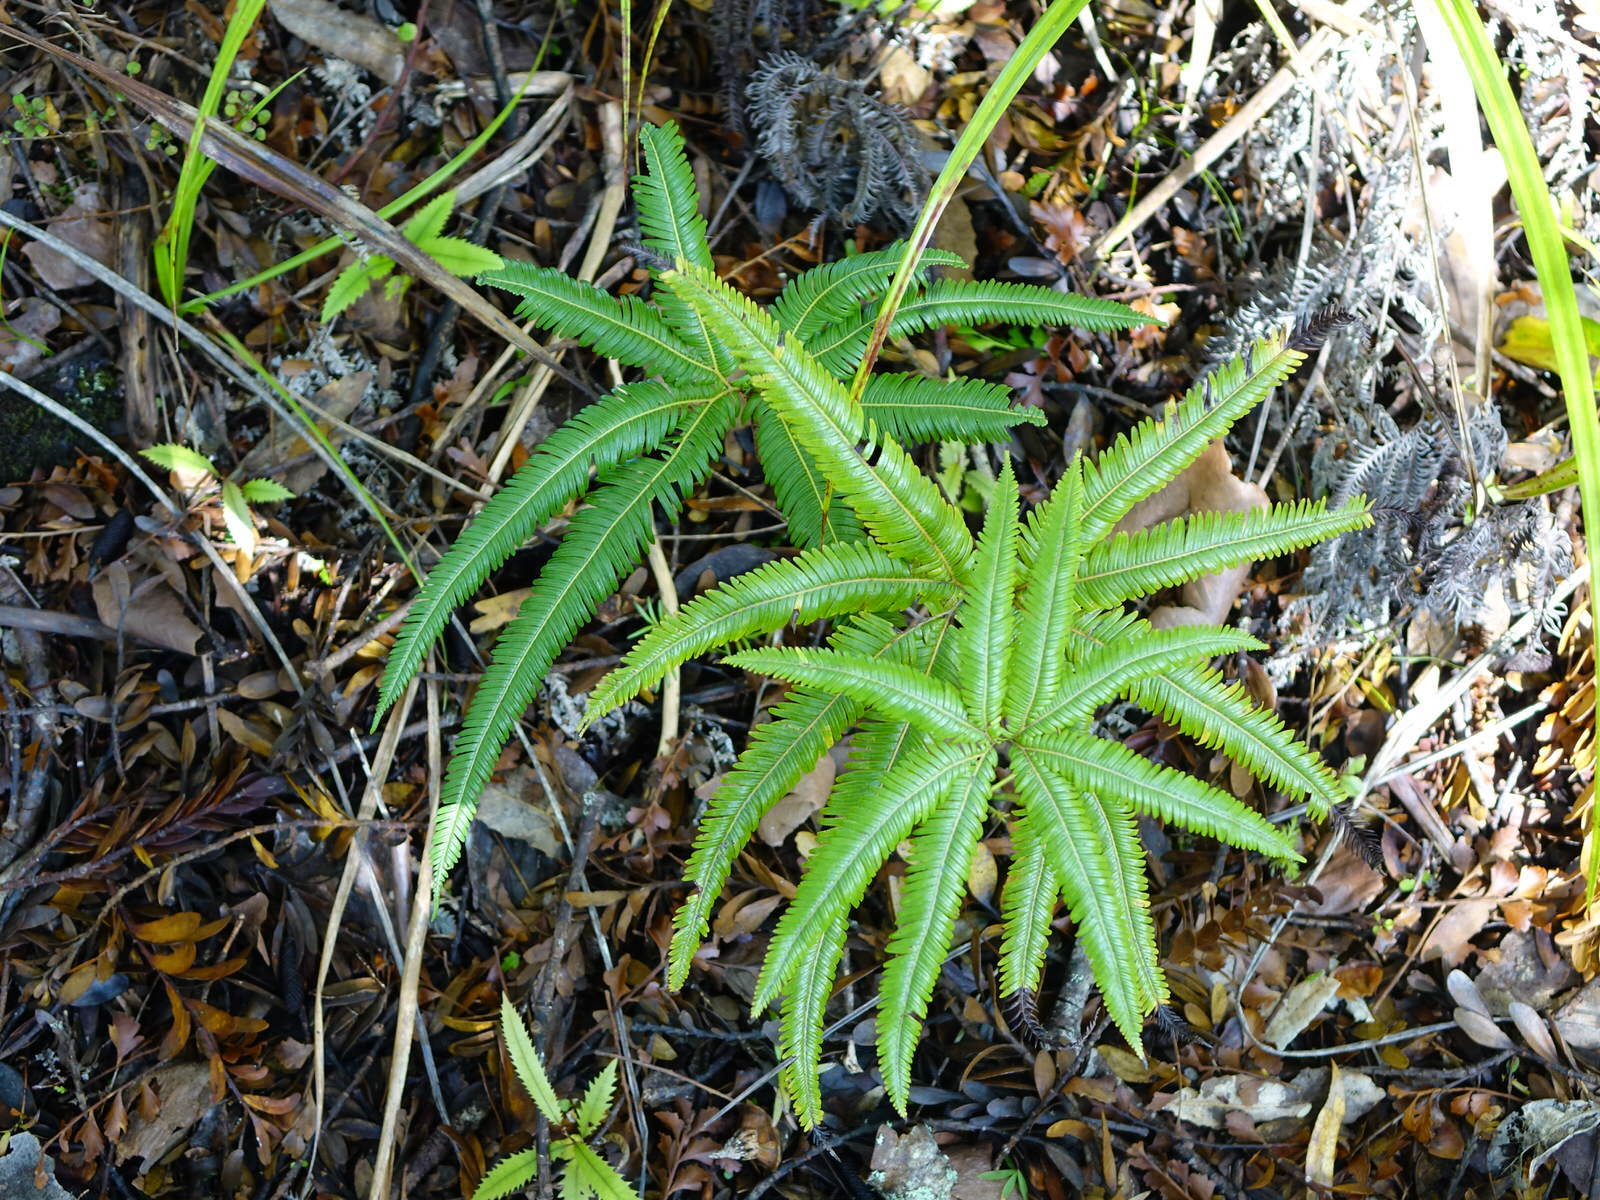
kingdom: Plantae
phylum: Tracheophyta
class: Polypodiopsida
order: Gleicheniales
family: Gleicheniaceae
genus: Sticherus
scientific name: Sticherus cunninghamii
